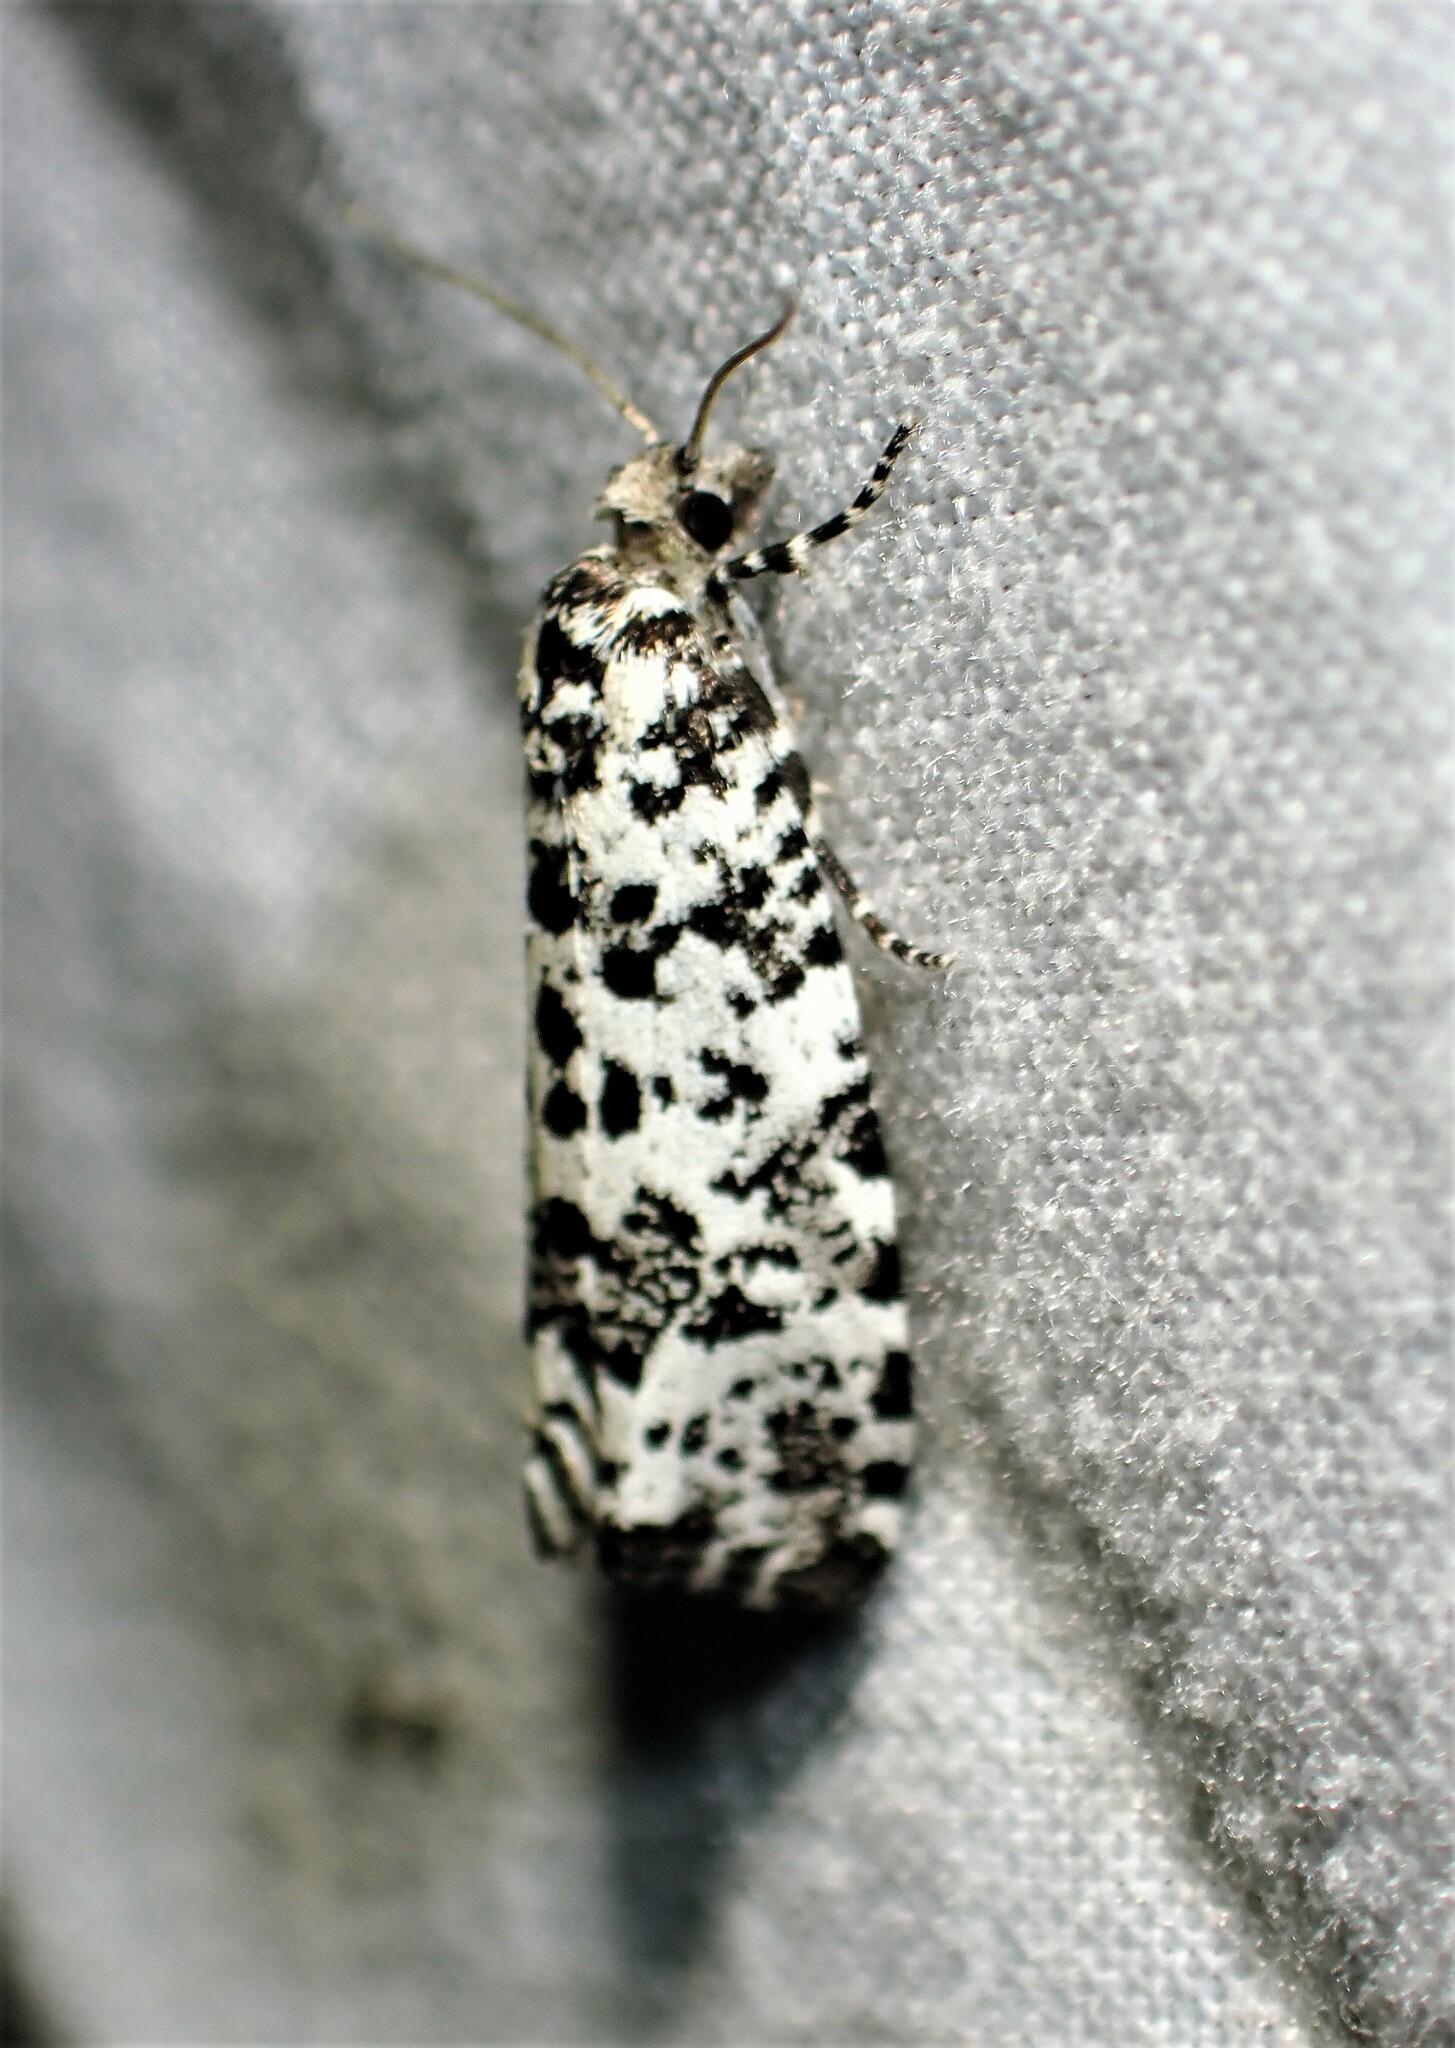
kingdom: Animalia
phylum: Arthropoda
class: Insecta
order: Lepidoptera
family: Tortricidae
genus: Retinia
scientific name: Retinia burkeana
